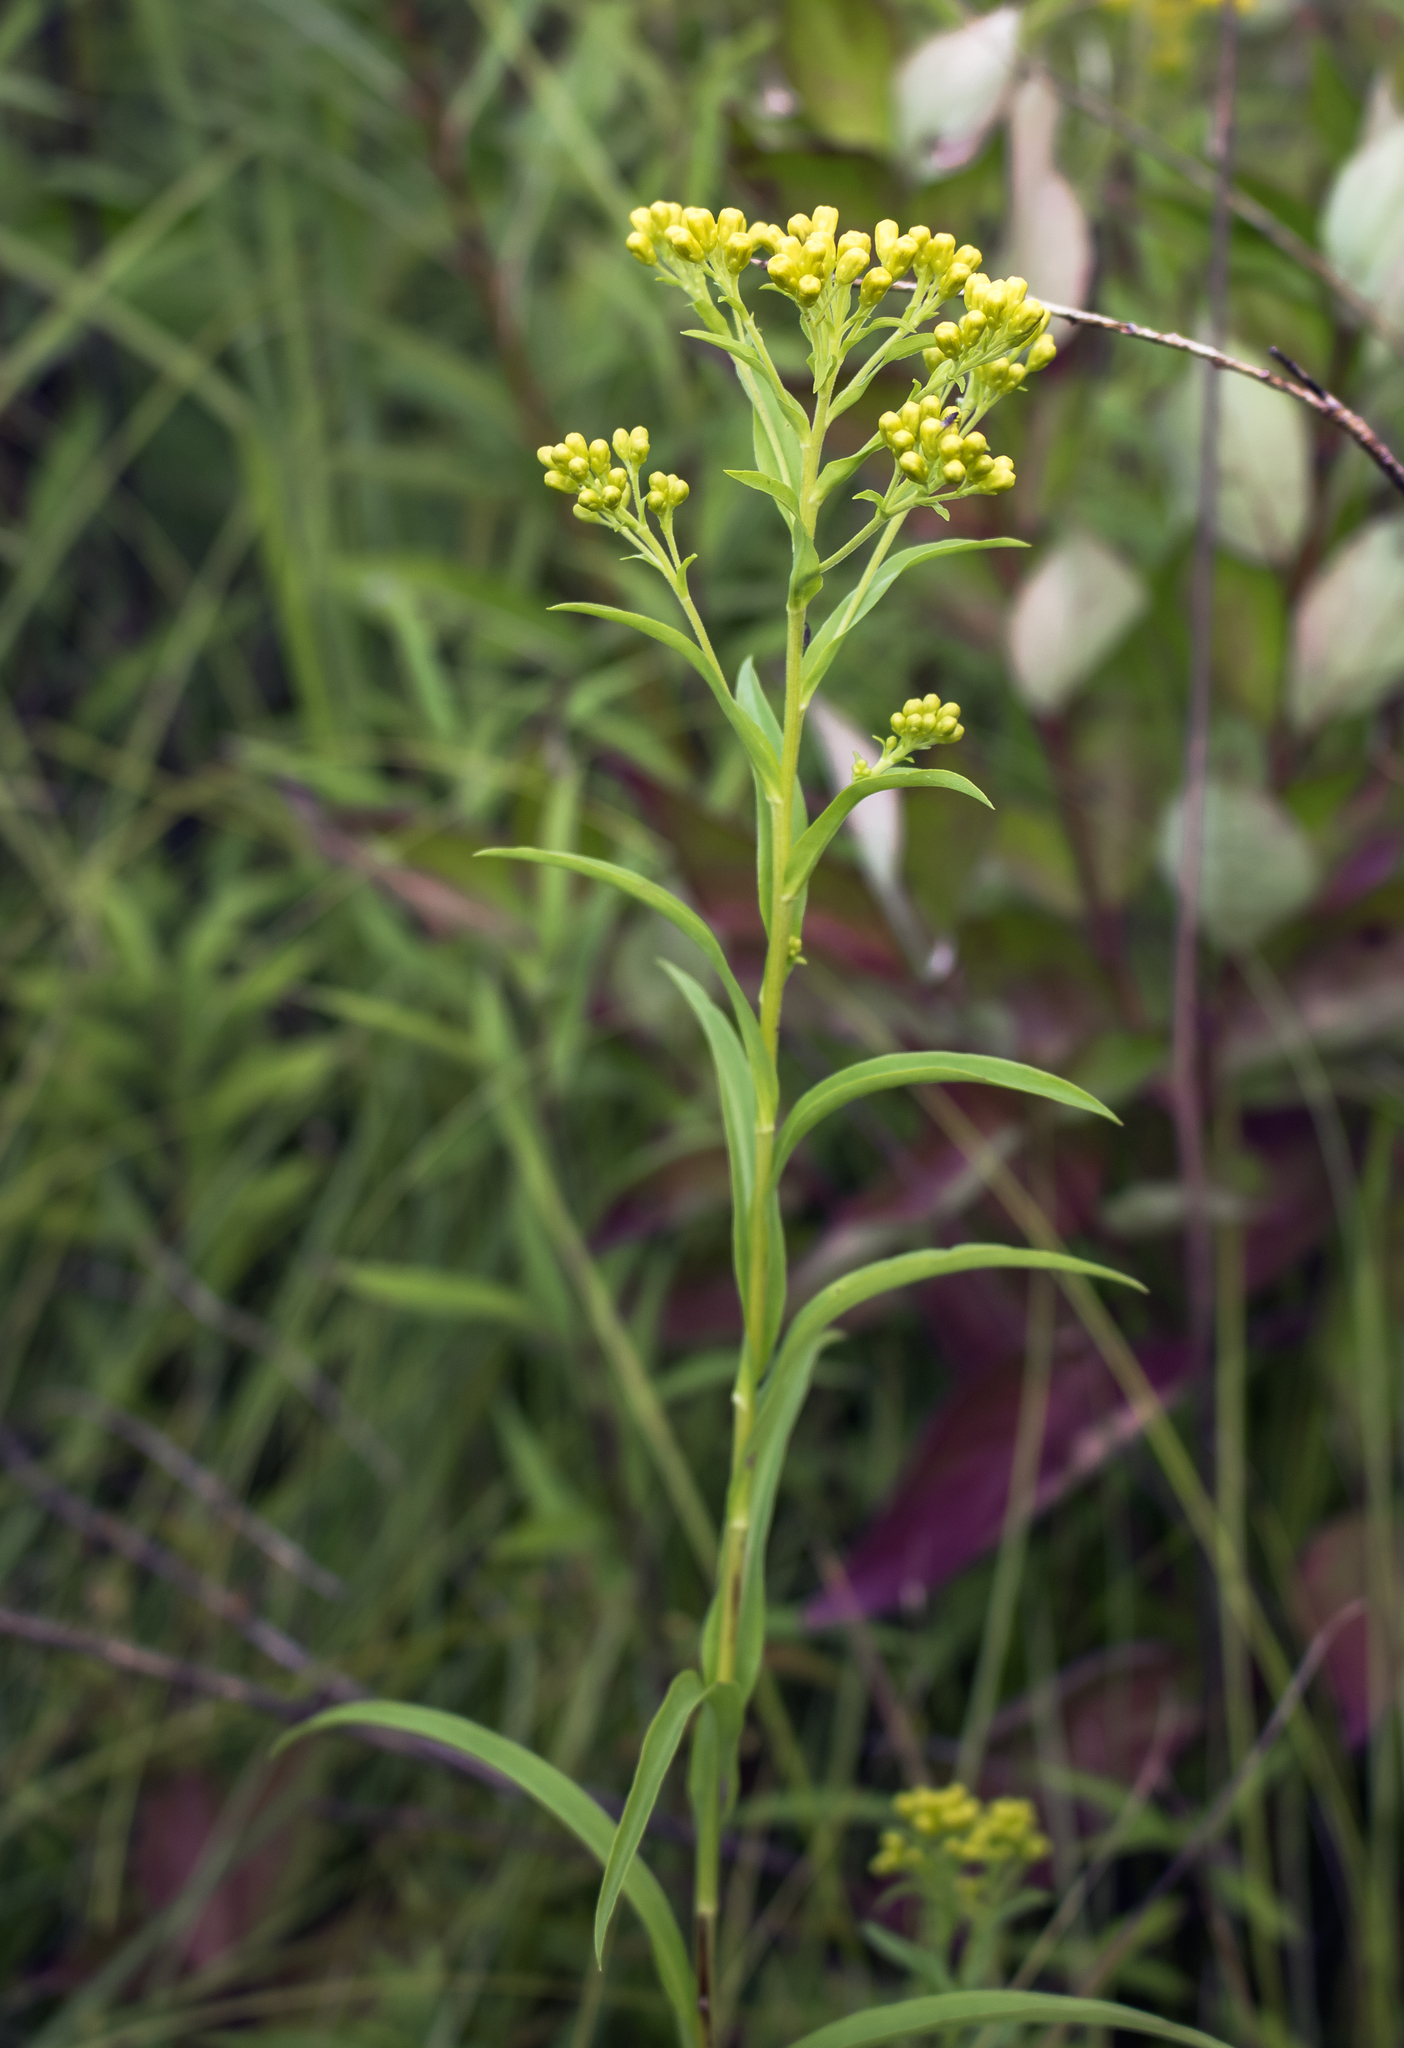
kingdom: Plantae
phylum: Tracheophyta
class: Magnoliopsida
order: Asterales
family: Asteraceae
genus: Solidago
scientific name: Solidago riddellii
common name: Riddell's goldenrod
